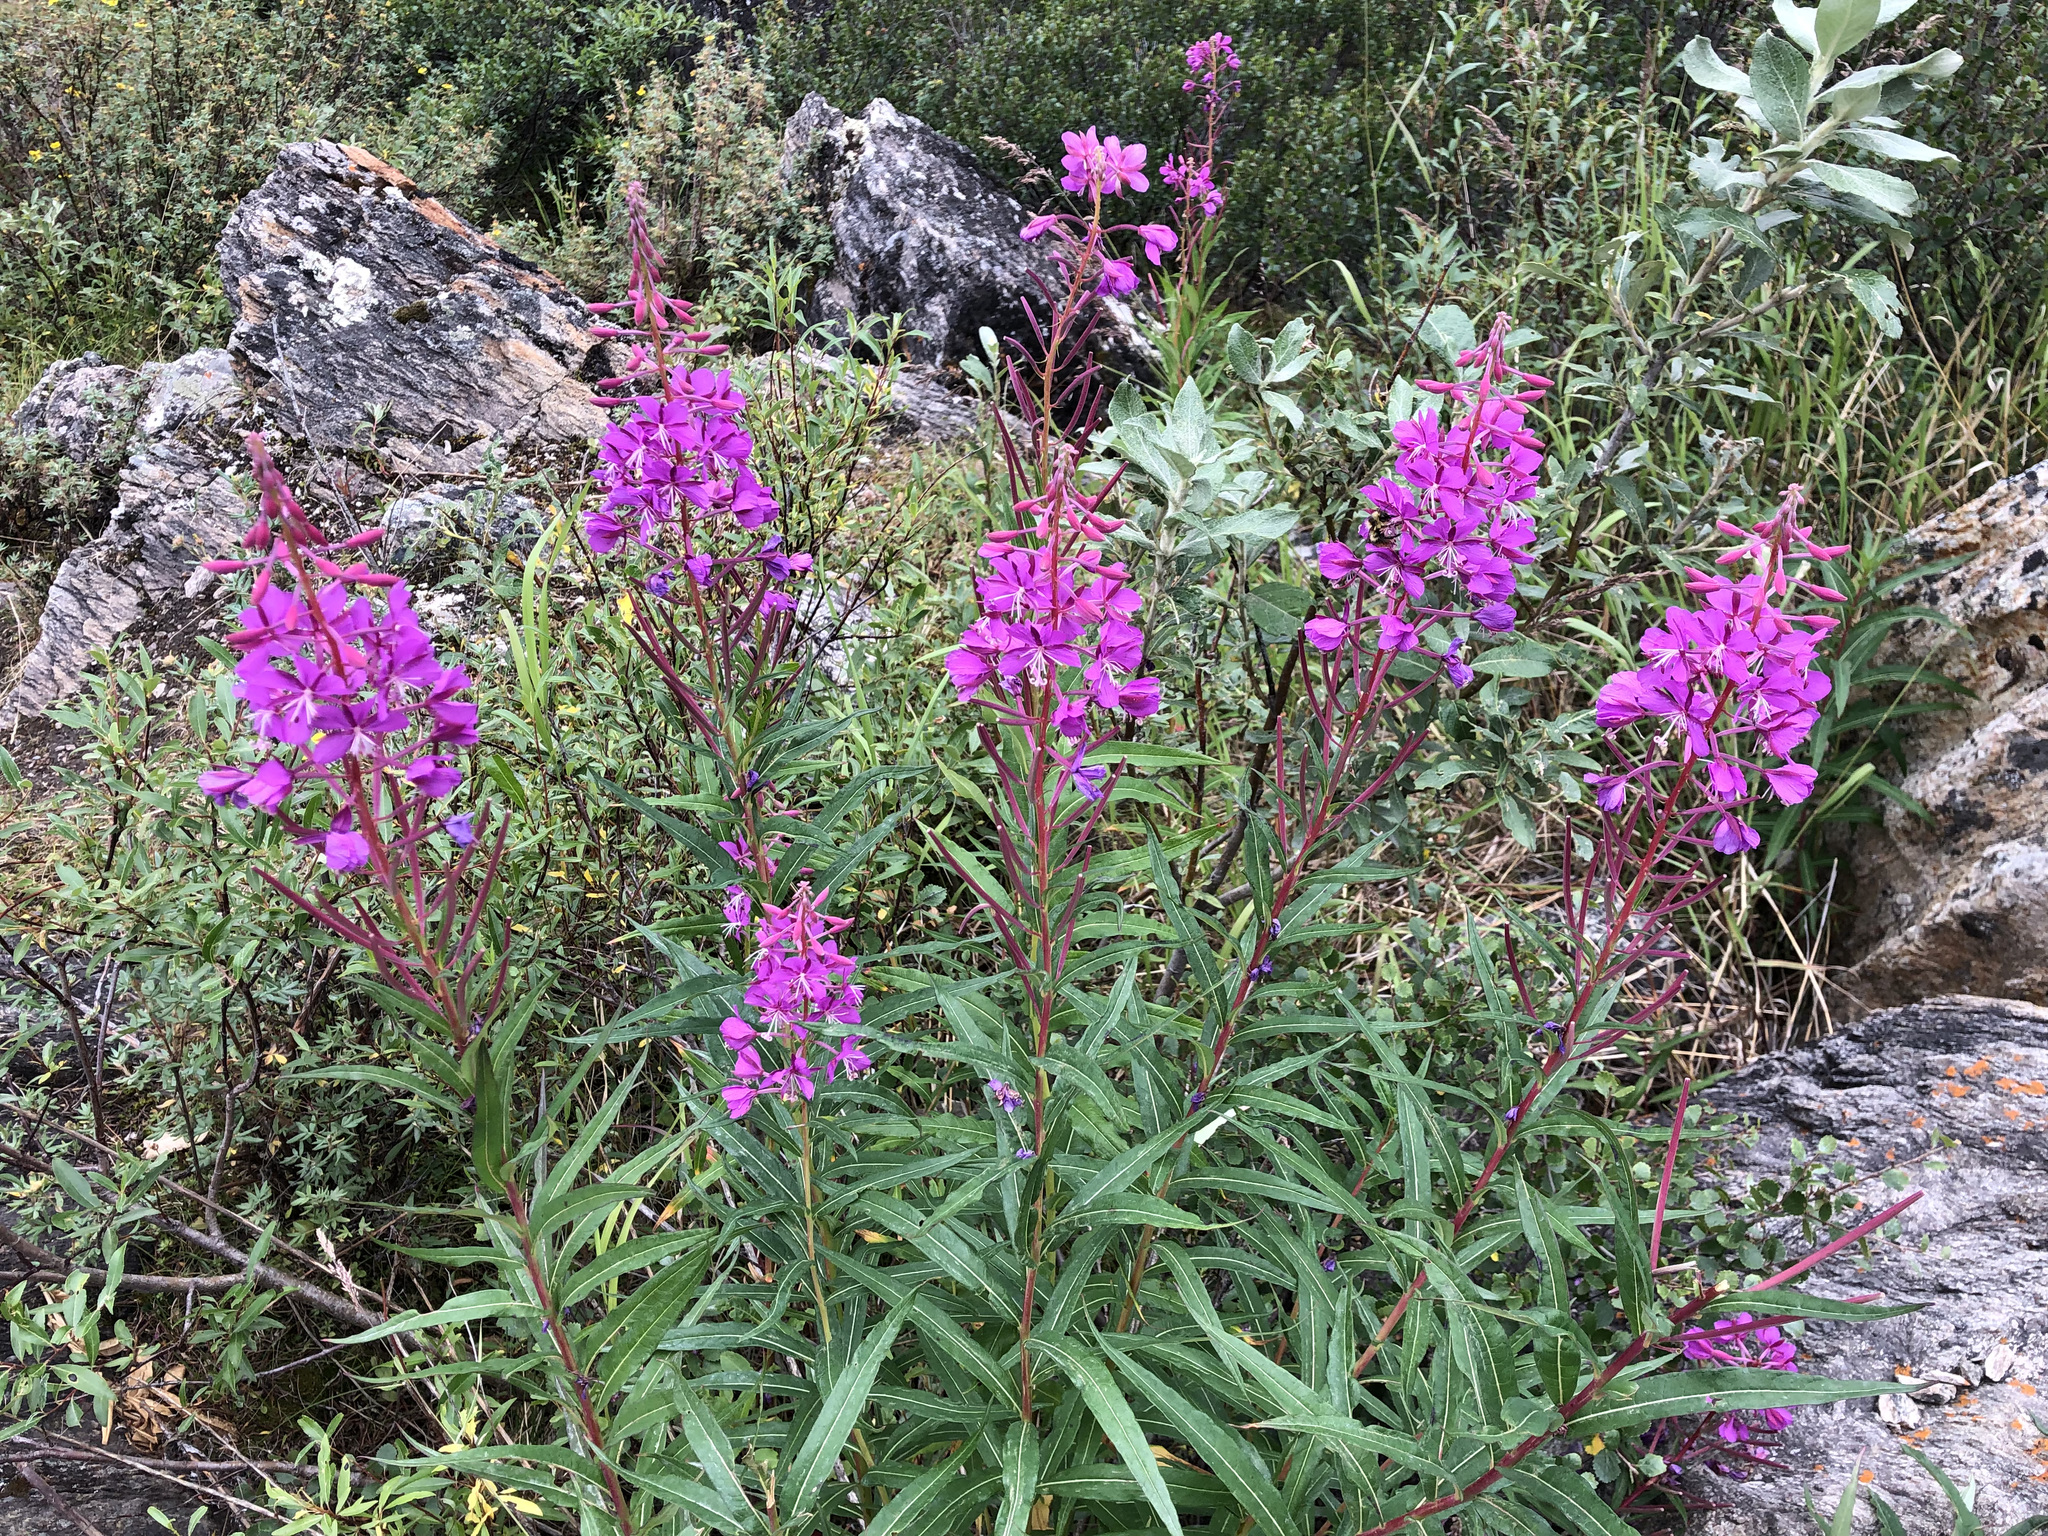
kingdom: Plantae
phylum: Tracheophyta
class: Magnoliopsida
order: Myrtales
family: Onagraceae
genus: Chamaenerion
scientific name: Chamaenerion angustifolium
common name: Fireweed
